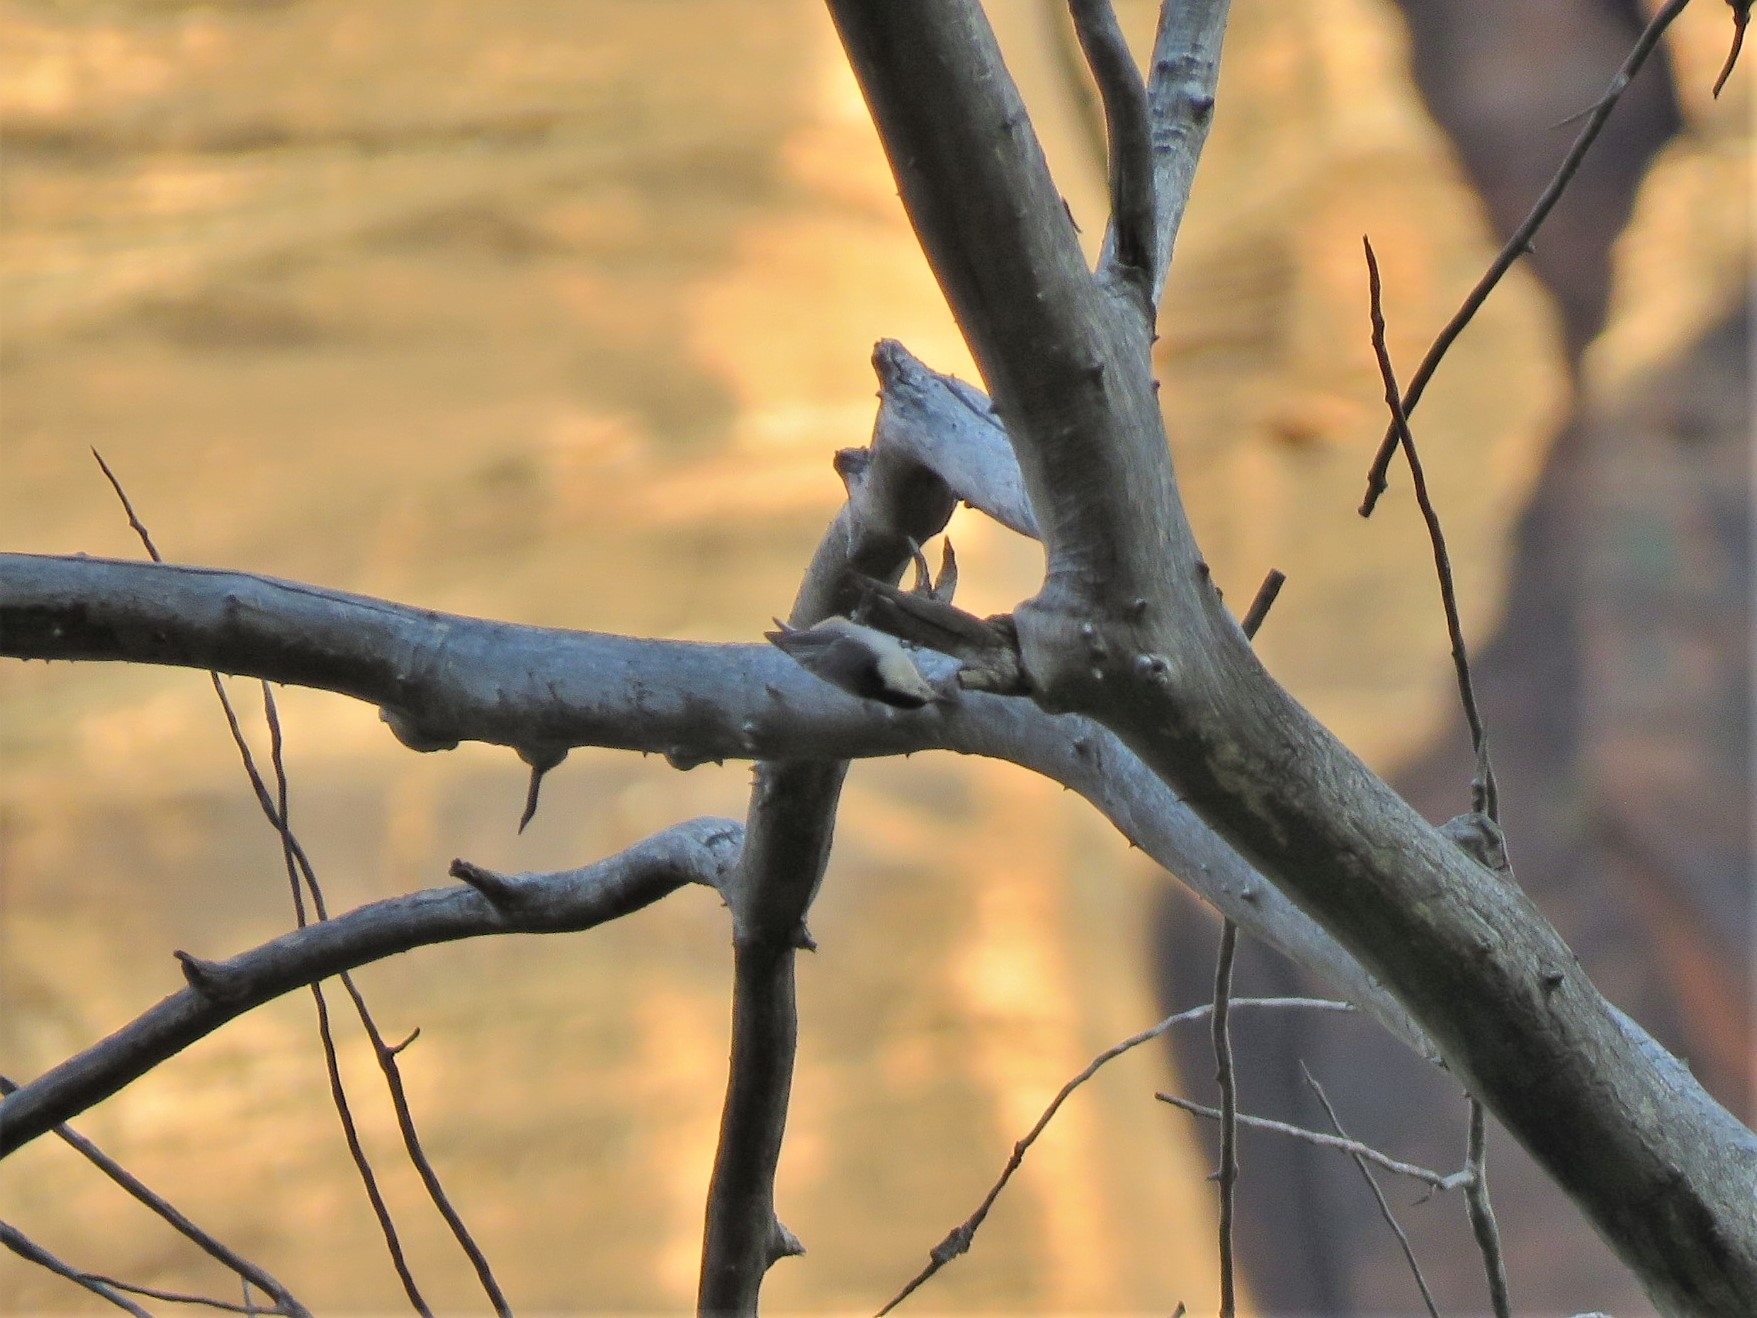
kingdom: Animalia
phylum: Chordata
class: Aves
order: Passeriformes
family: Sittidae
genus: Sitta
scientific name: Sitta carolinensis
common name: White-breasted nuthatch
